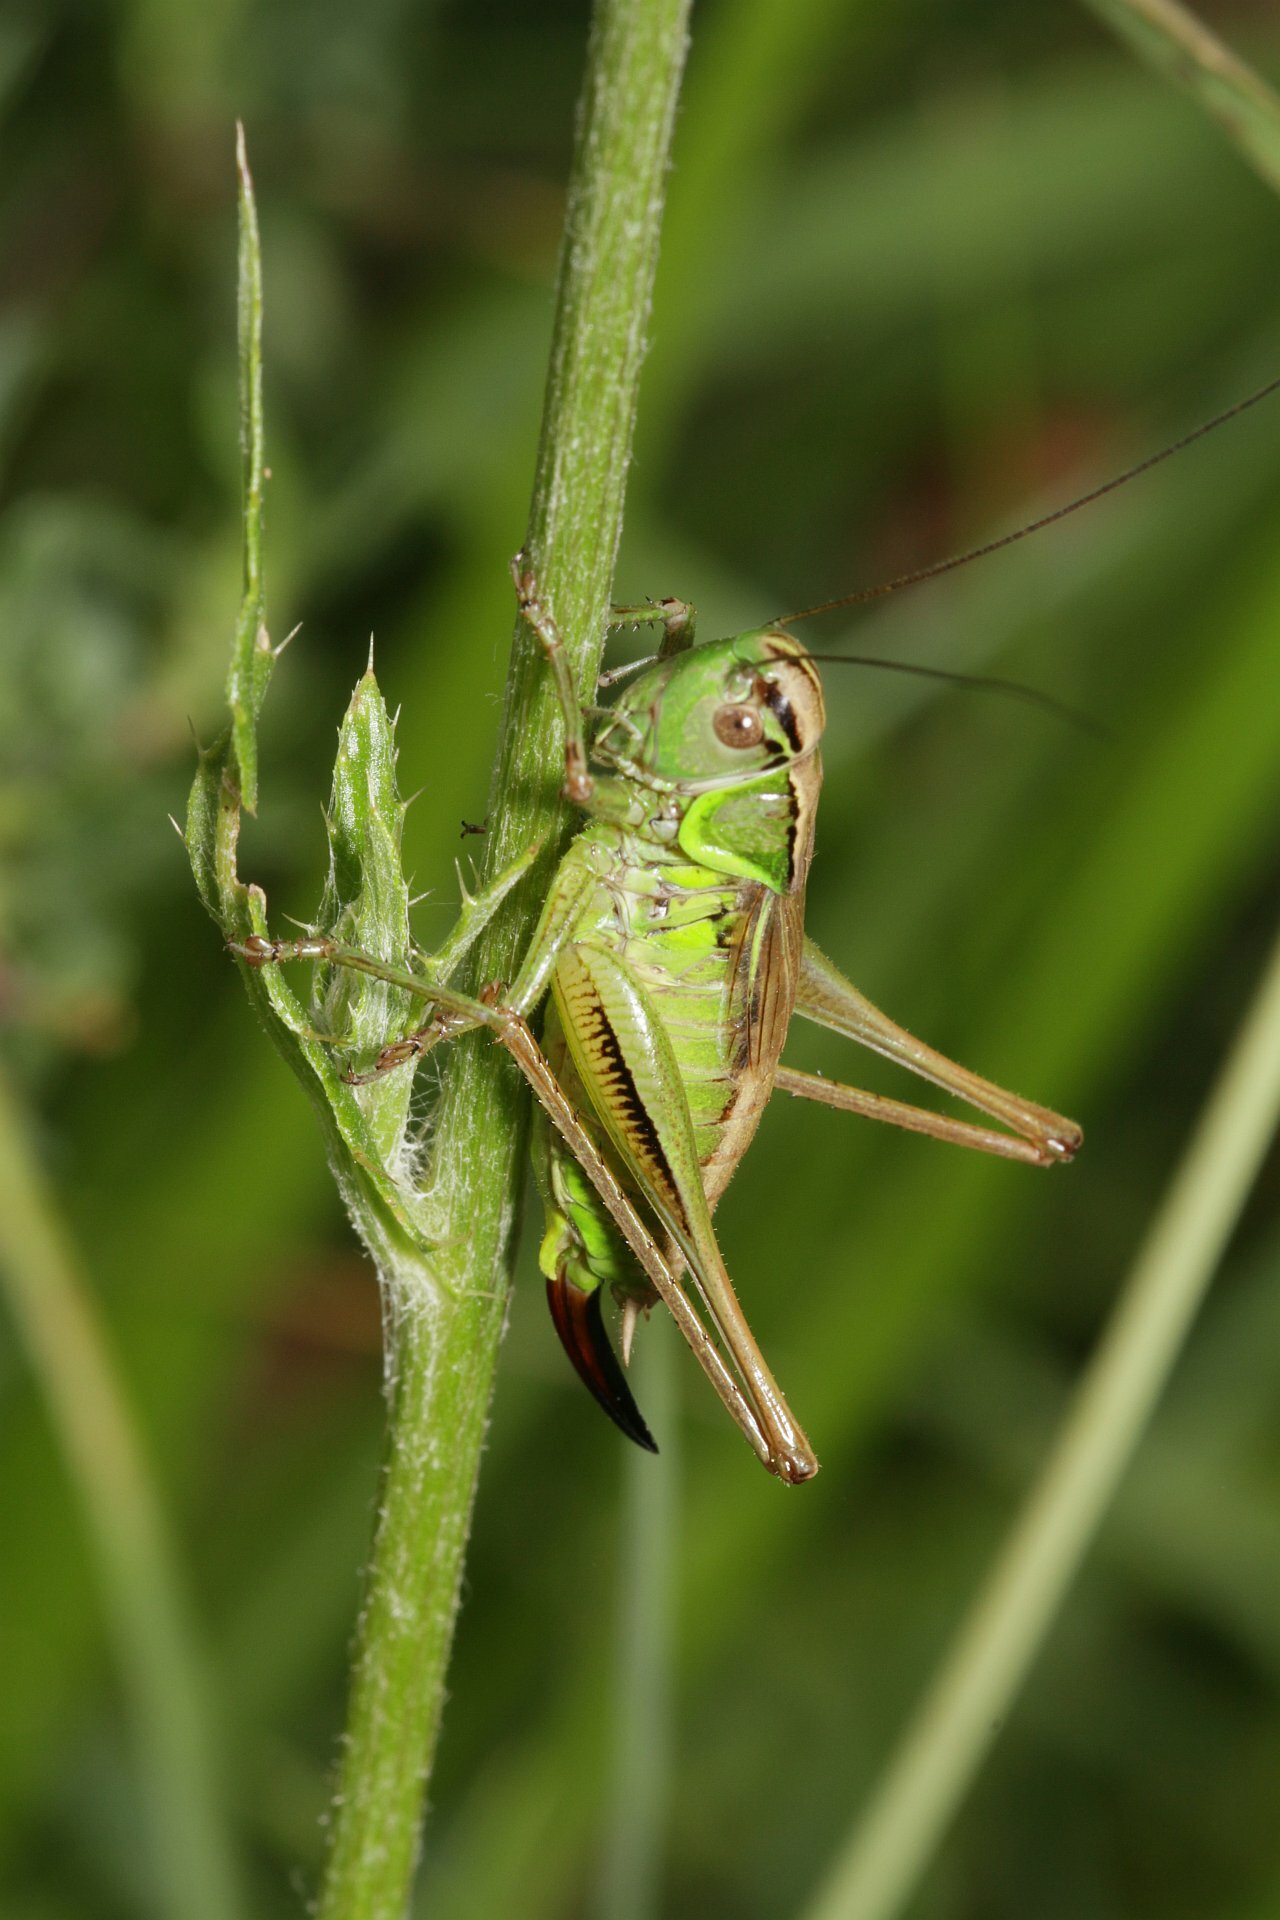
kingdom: Animalia
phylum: Arthropoda
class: Insecta
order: Orthoptera
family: Tettigoniidae
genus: Roeseliana
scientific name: Roeseliana roeselii
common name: Roesel's bush cricket
